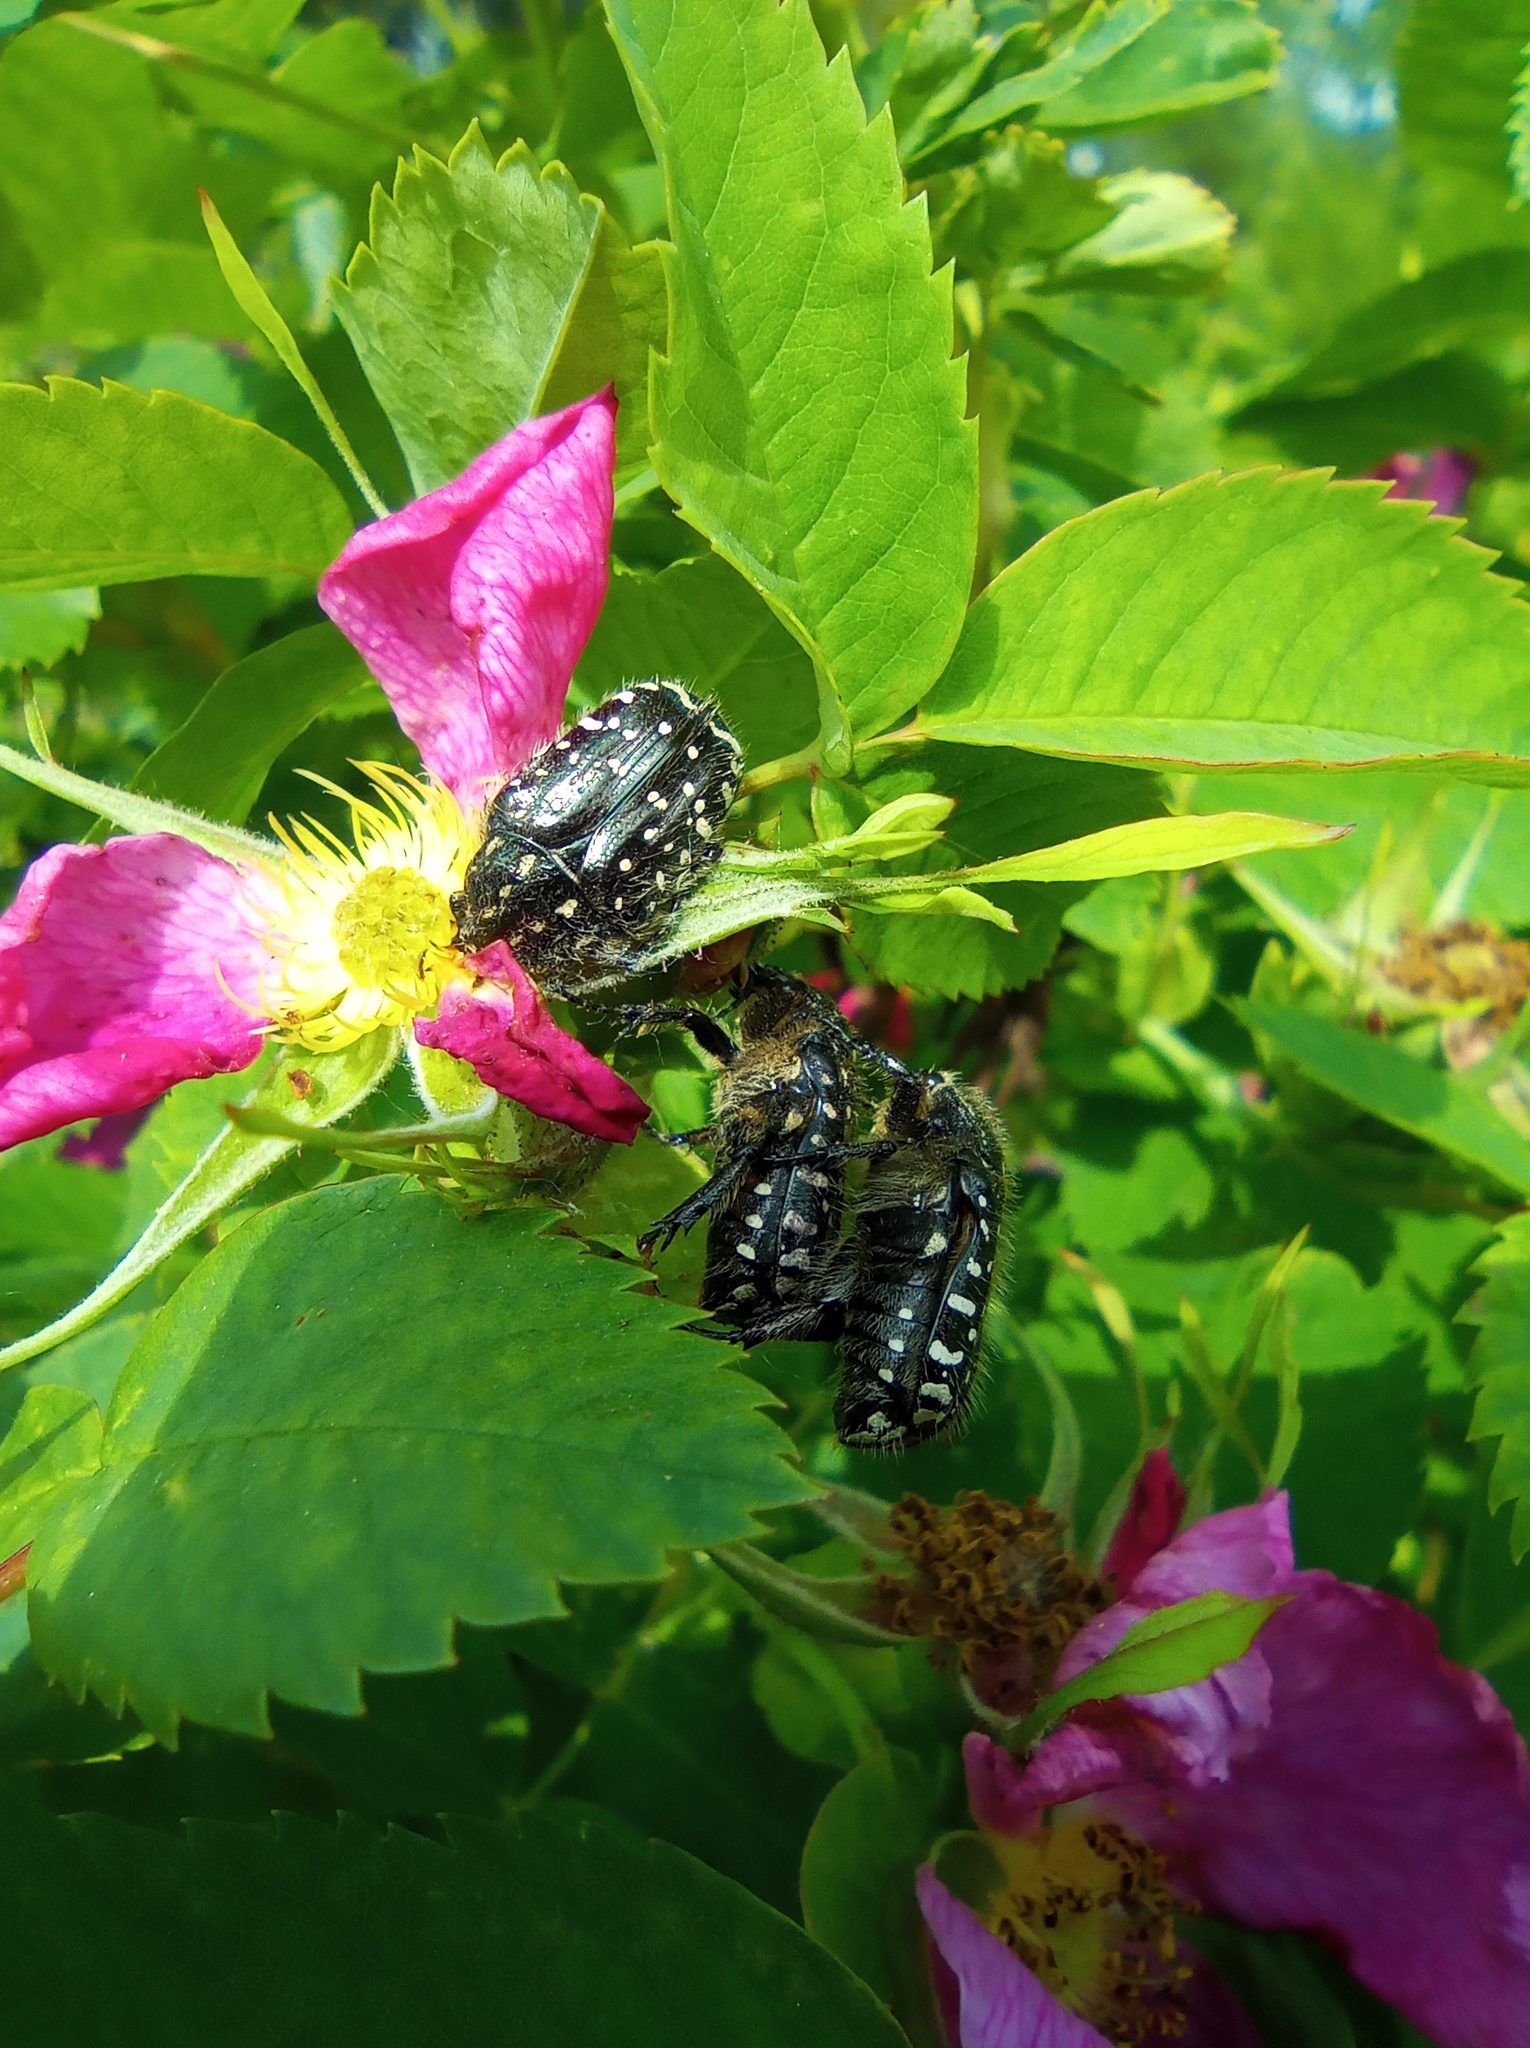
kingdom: Animalia
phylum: Arthropoda
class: Insecta
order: Coleoptera
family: Scarabaeidae
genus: Oxythyrea
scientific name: Oxythyrea funesta
